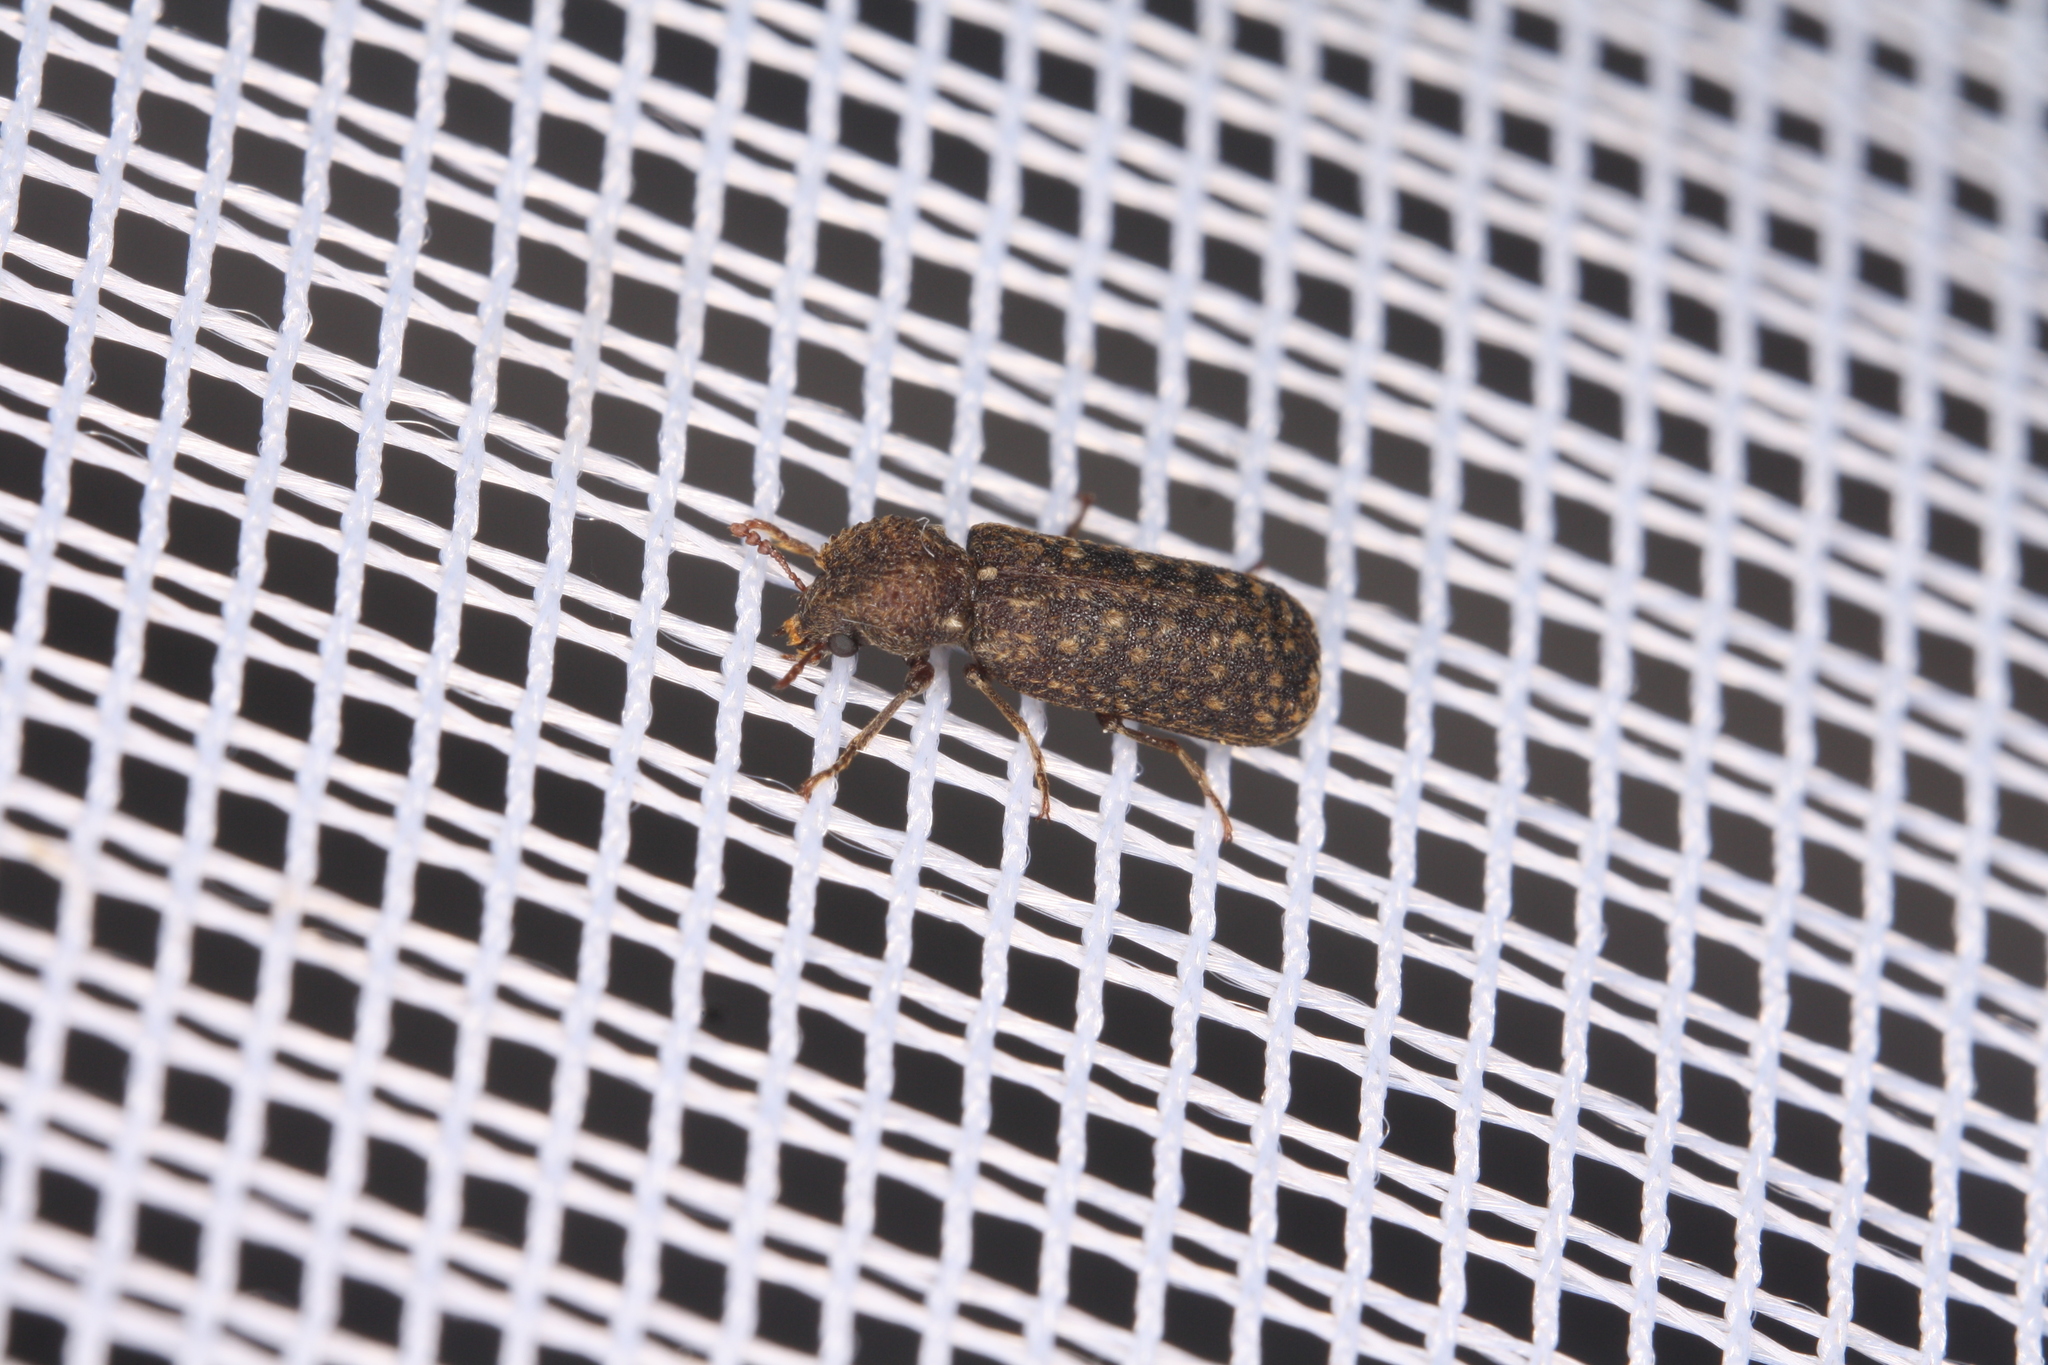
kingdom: Animalia
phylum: Arthropoda
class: Insecta
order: Coleoptera
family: Bostrichidae
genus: Lichenophanes
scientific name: Lichenophanes varius
